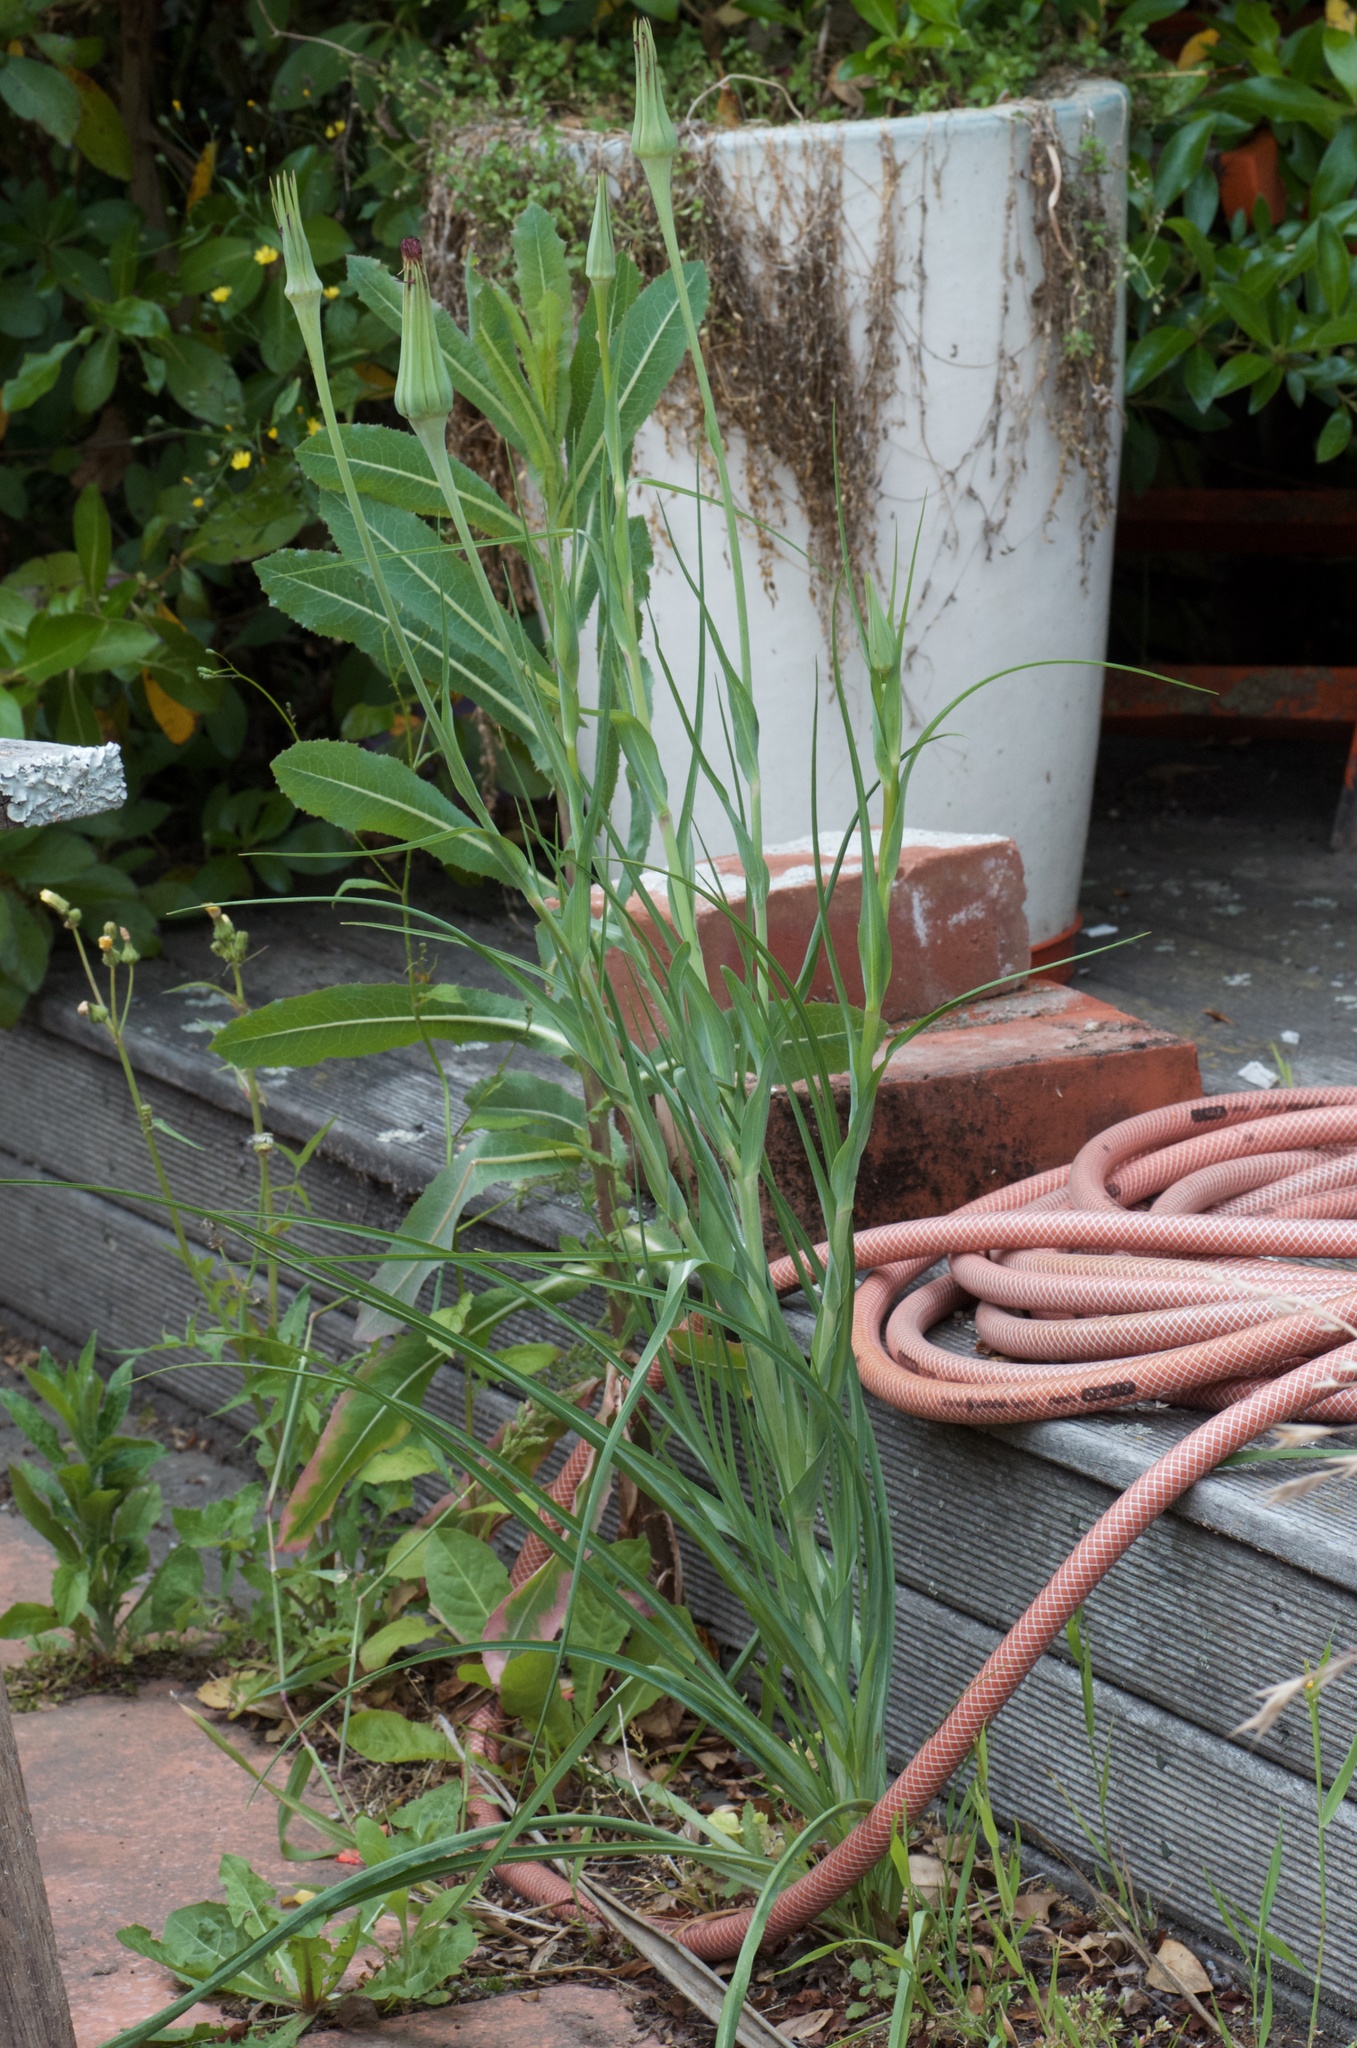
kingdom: Plantae
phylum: Tracheophyta
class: Magnoliopsida
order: Asterales
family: Asteraceae
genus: Tragopogon
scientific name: Tragopogon porrifolius
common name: Salsify
